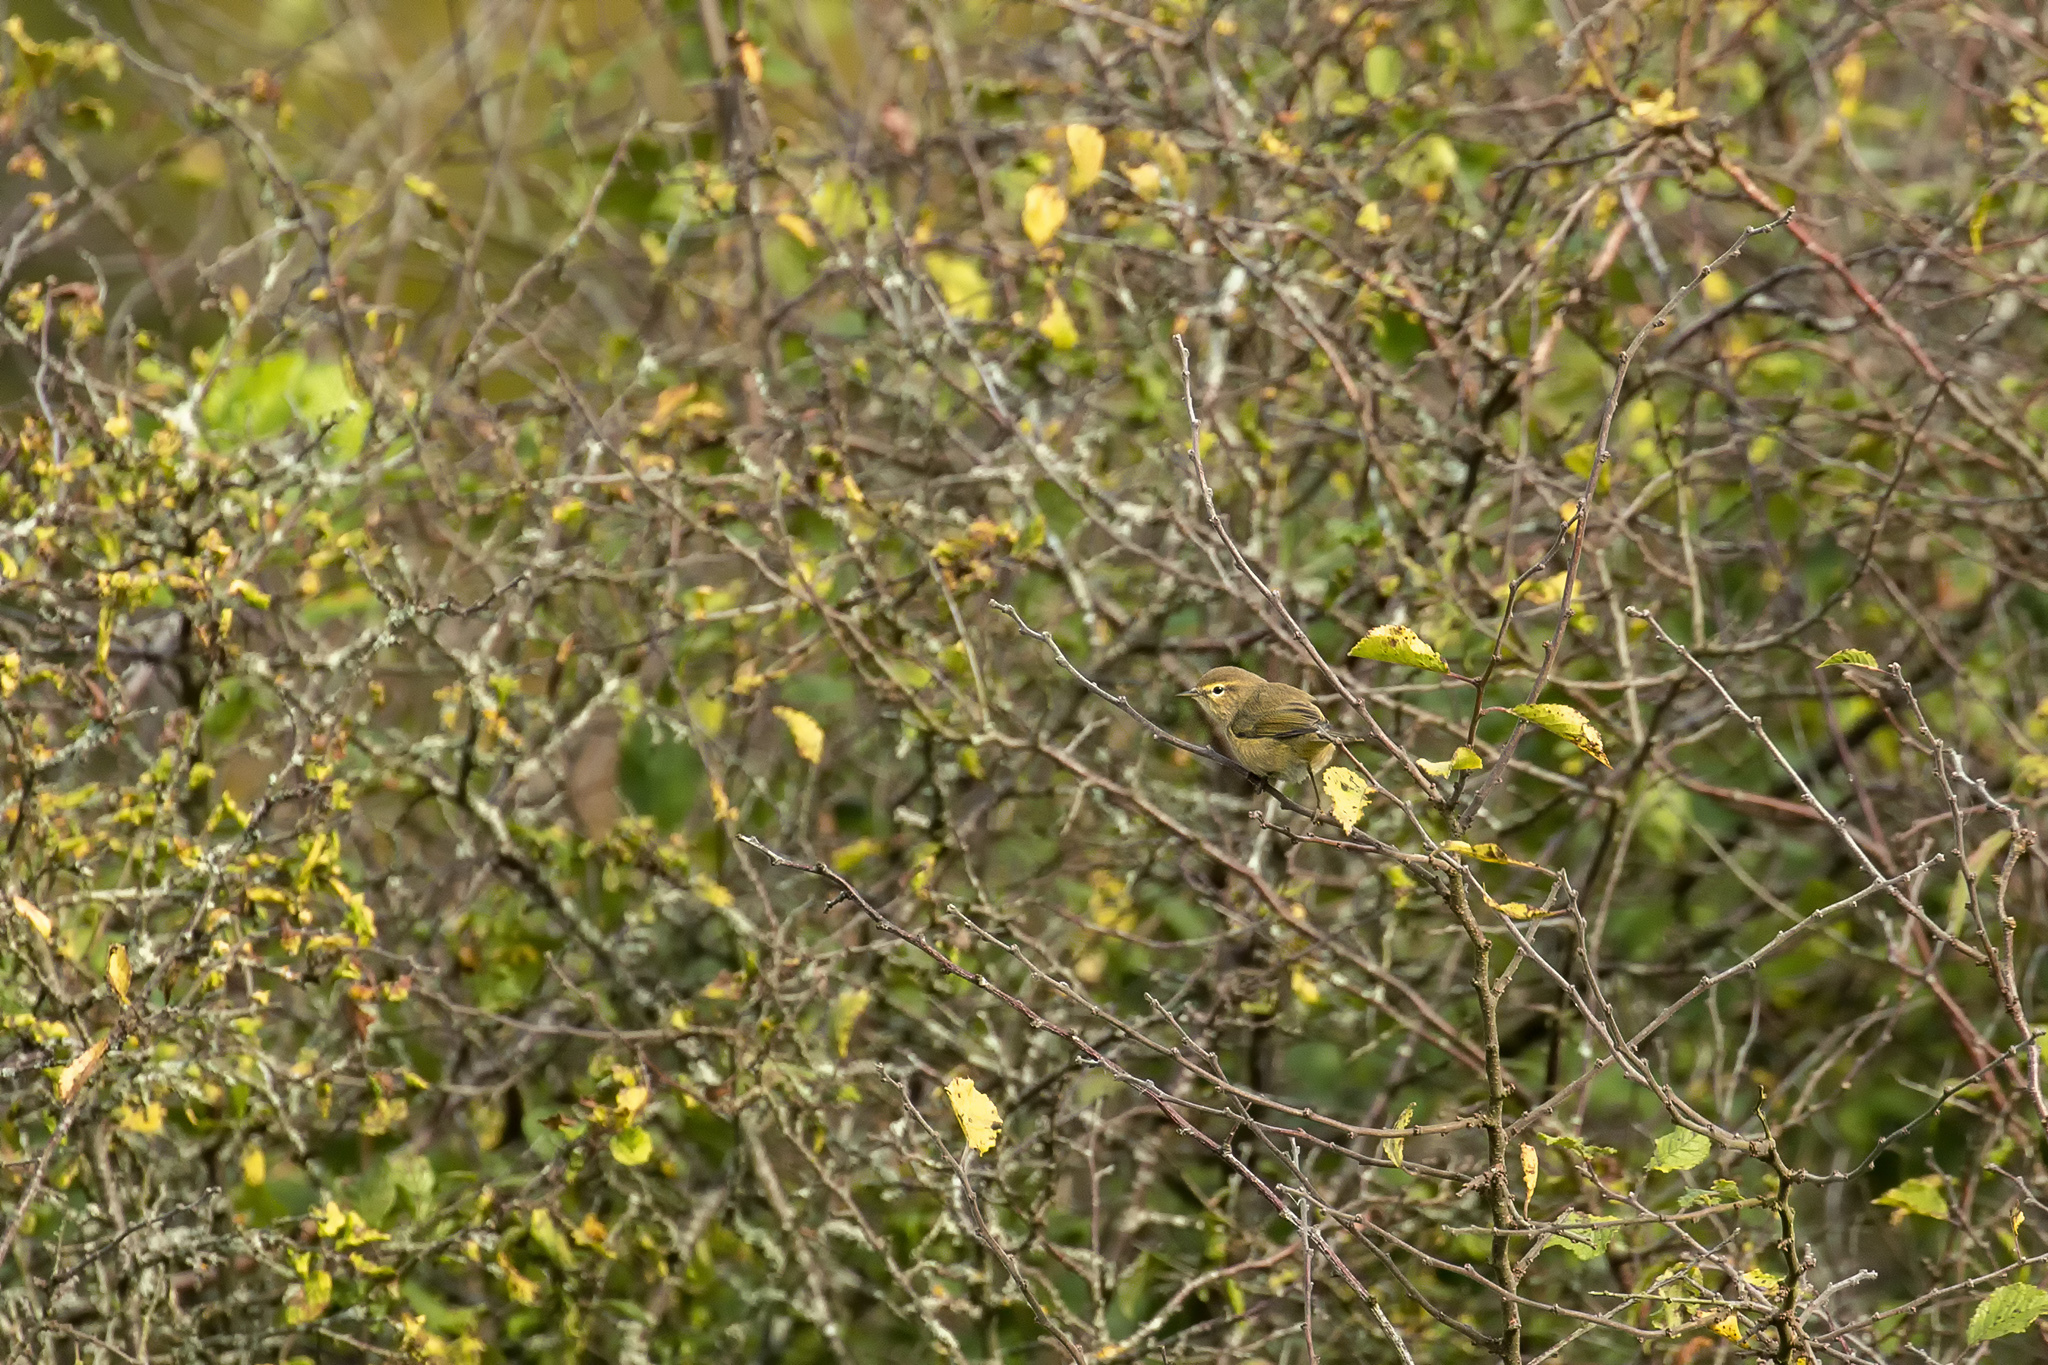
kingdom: Animalia
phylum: Chordata
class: Aves
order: Passeriformes
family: Phylloscopidae
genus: Phylloscopus
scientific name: Phylloscopus collybita
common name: Common chiffchaff
